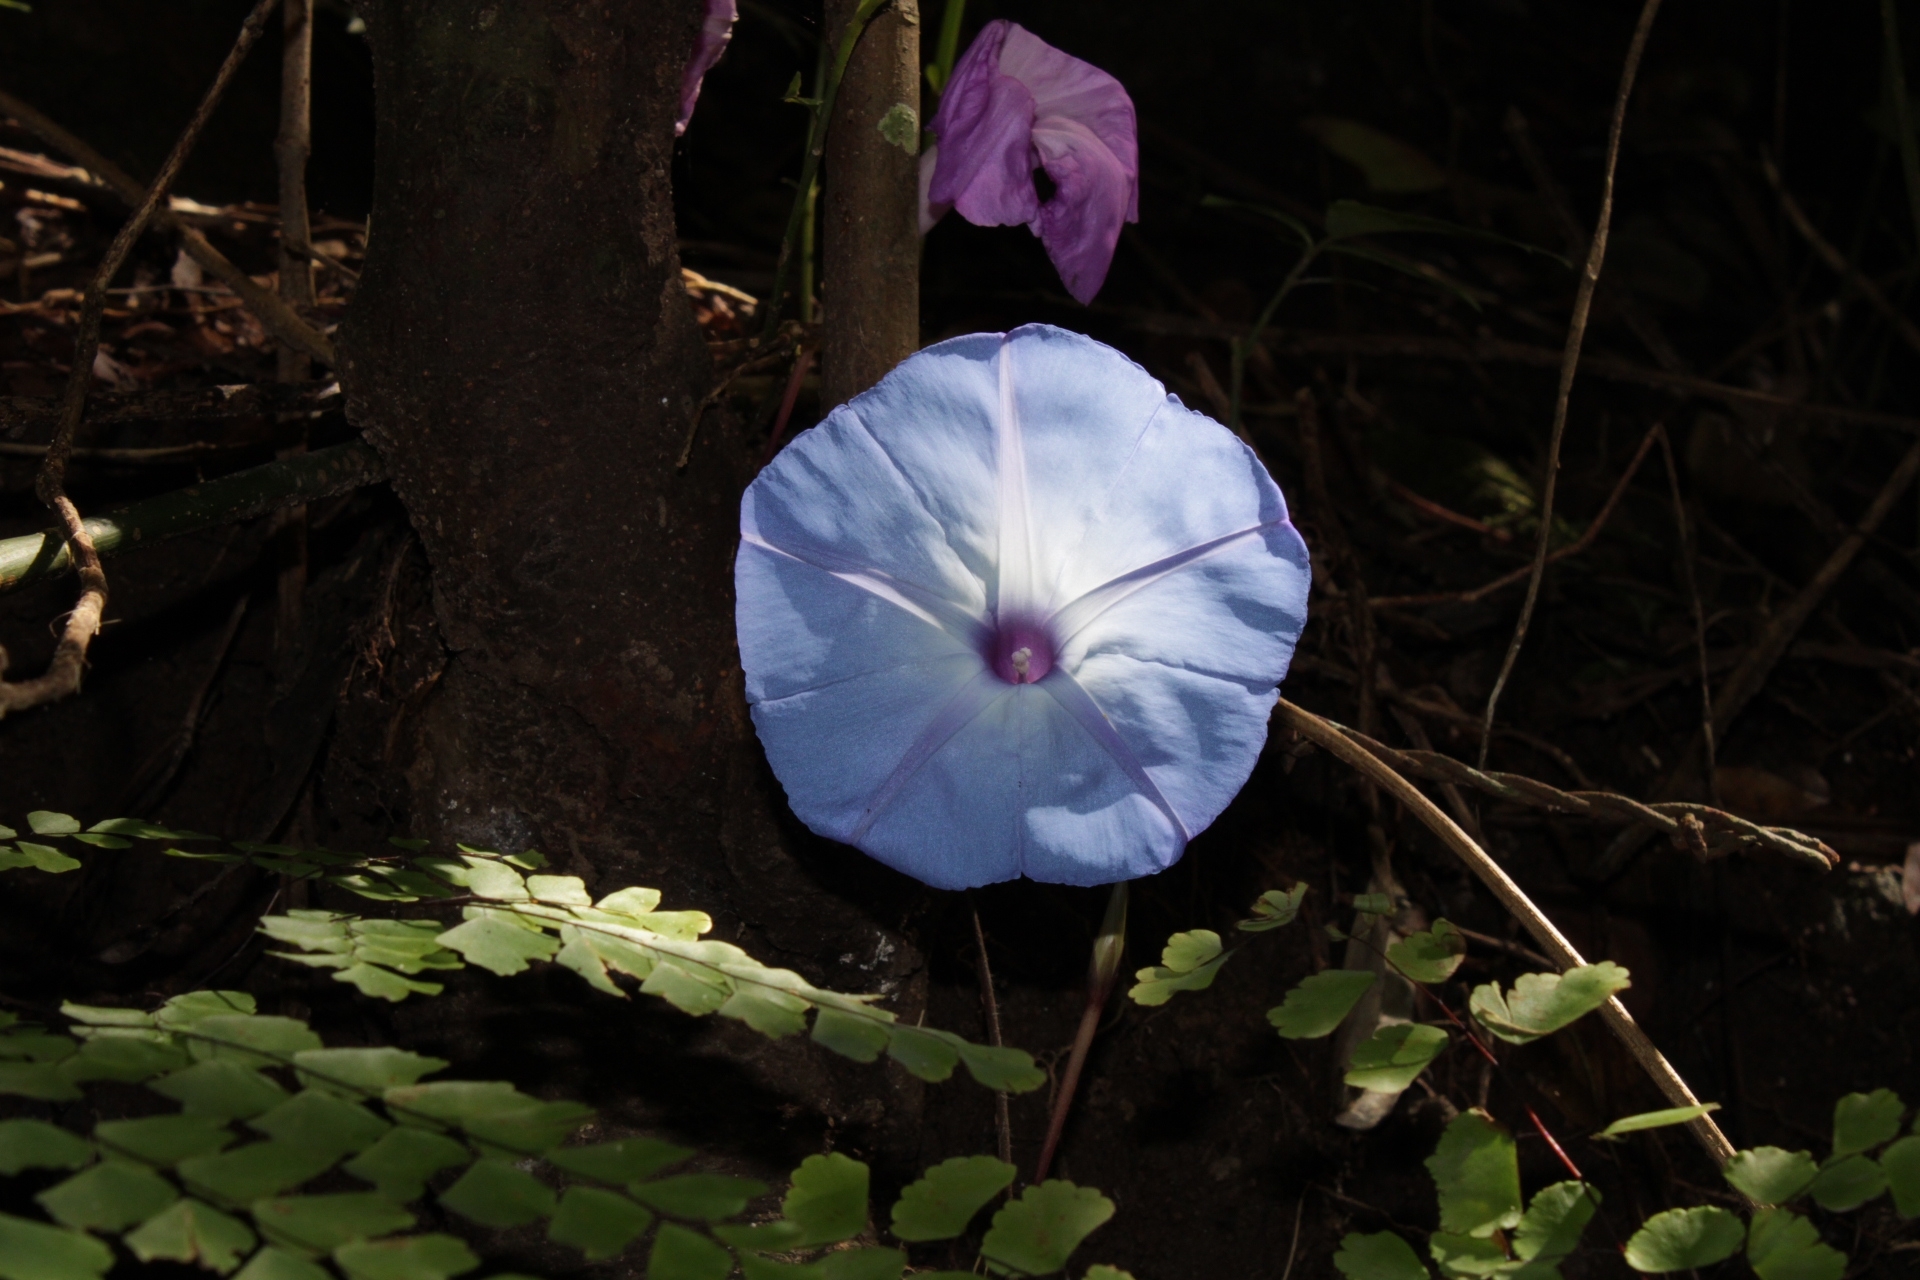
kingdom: Plantae
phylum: Tracheophyta
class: Magnoliopsida
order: Solanales
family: Convolvulaceae
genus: Ipomoea
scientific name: Ipomoea regnellii
